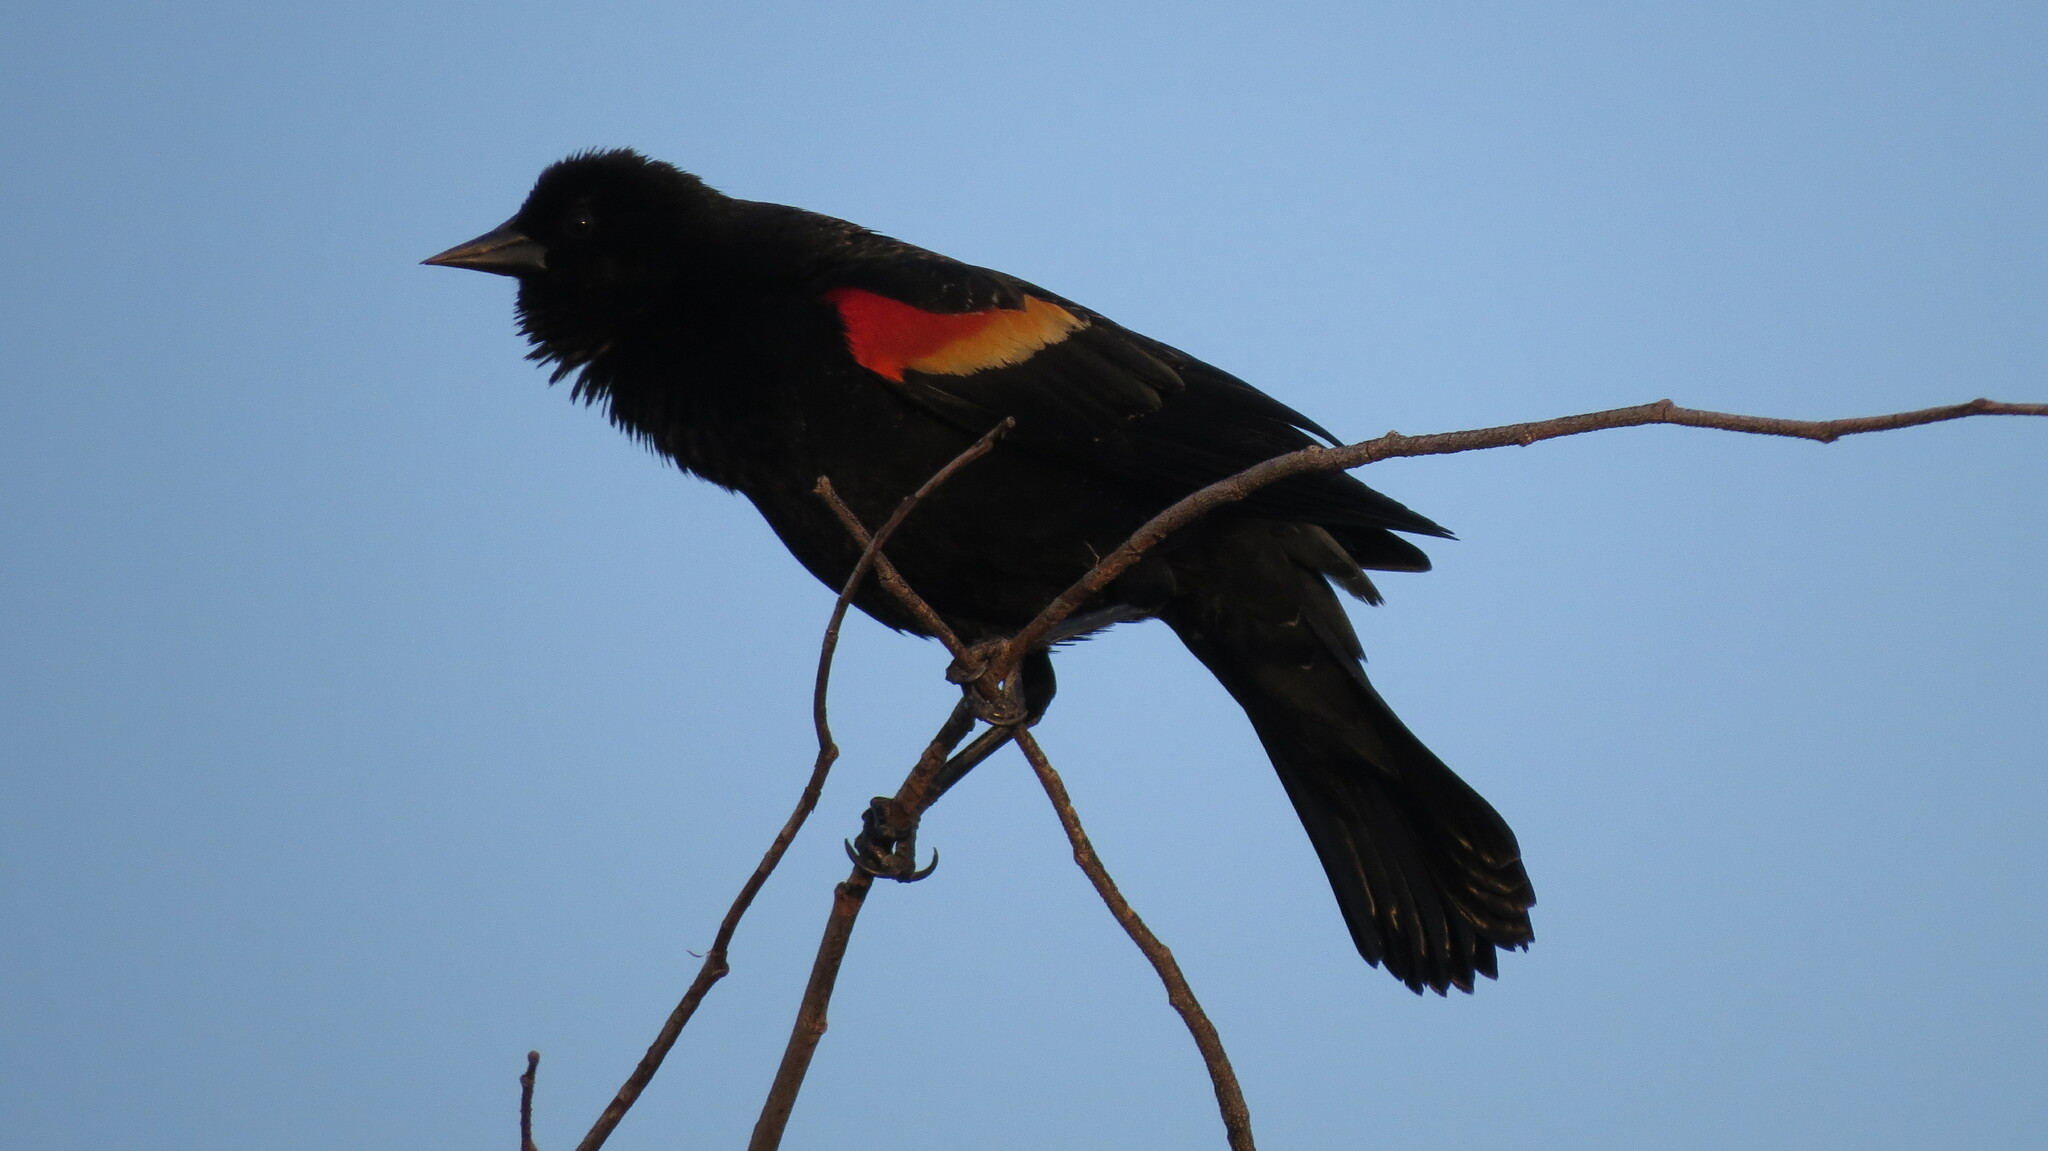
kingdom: Animalia
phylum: Chordata
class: Aves
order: Passeriformes
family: Icteridae
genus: Agelaius
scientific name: Agelaius phoeniceus
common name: Red-winged blackbird
